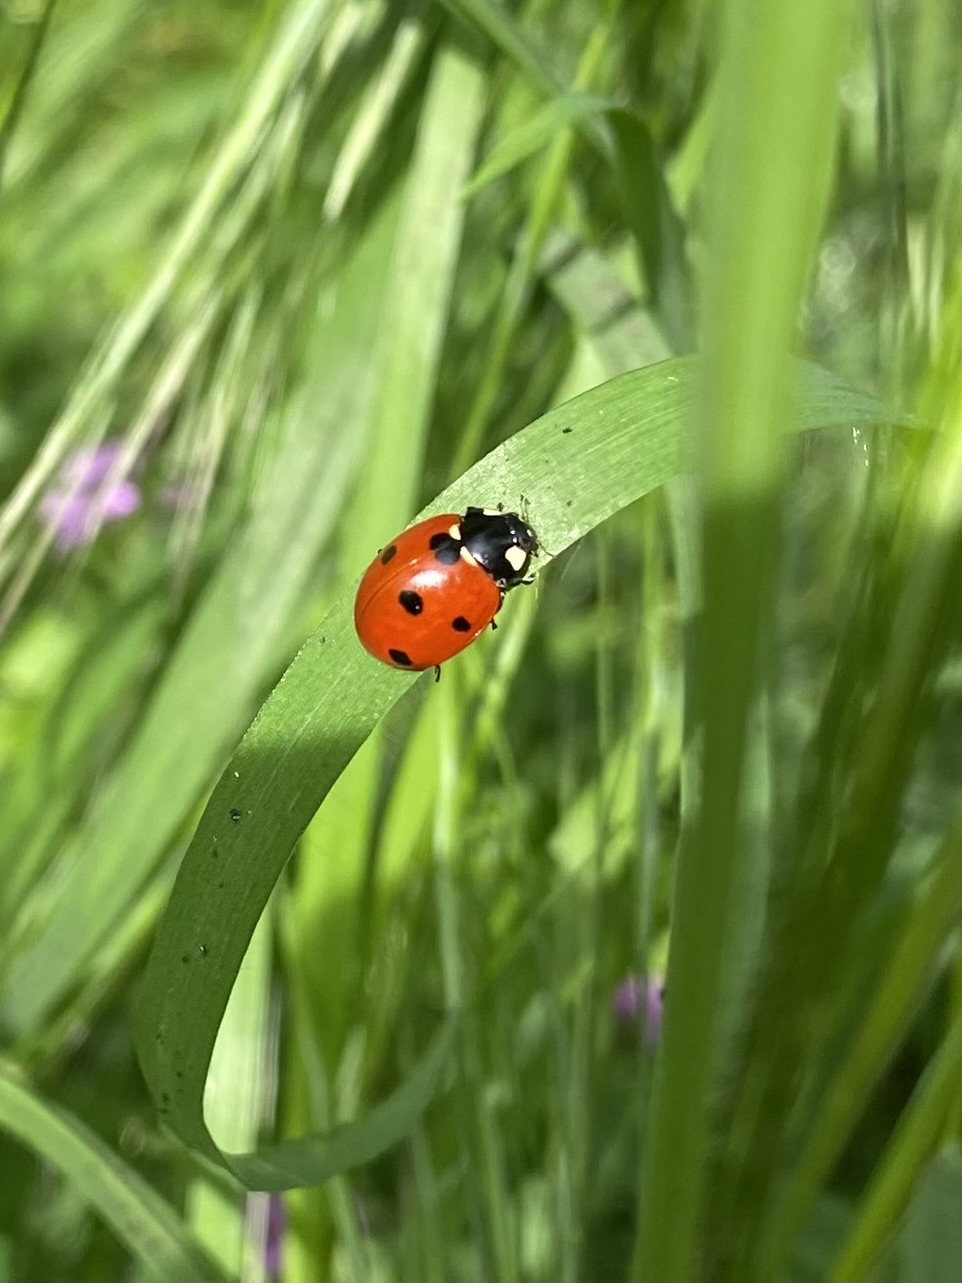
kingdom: Animalia
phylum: Arthropoda
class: Insecta
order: Coleoptera
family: Coccinellidae
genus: Coccinella
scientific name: Coccinella septempunctata
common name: Sevenspotted lady beetle
